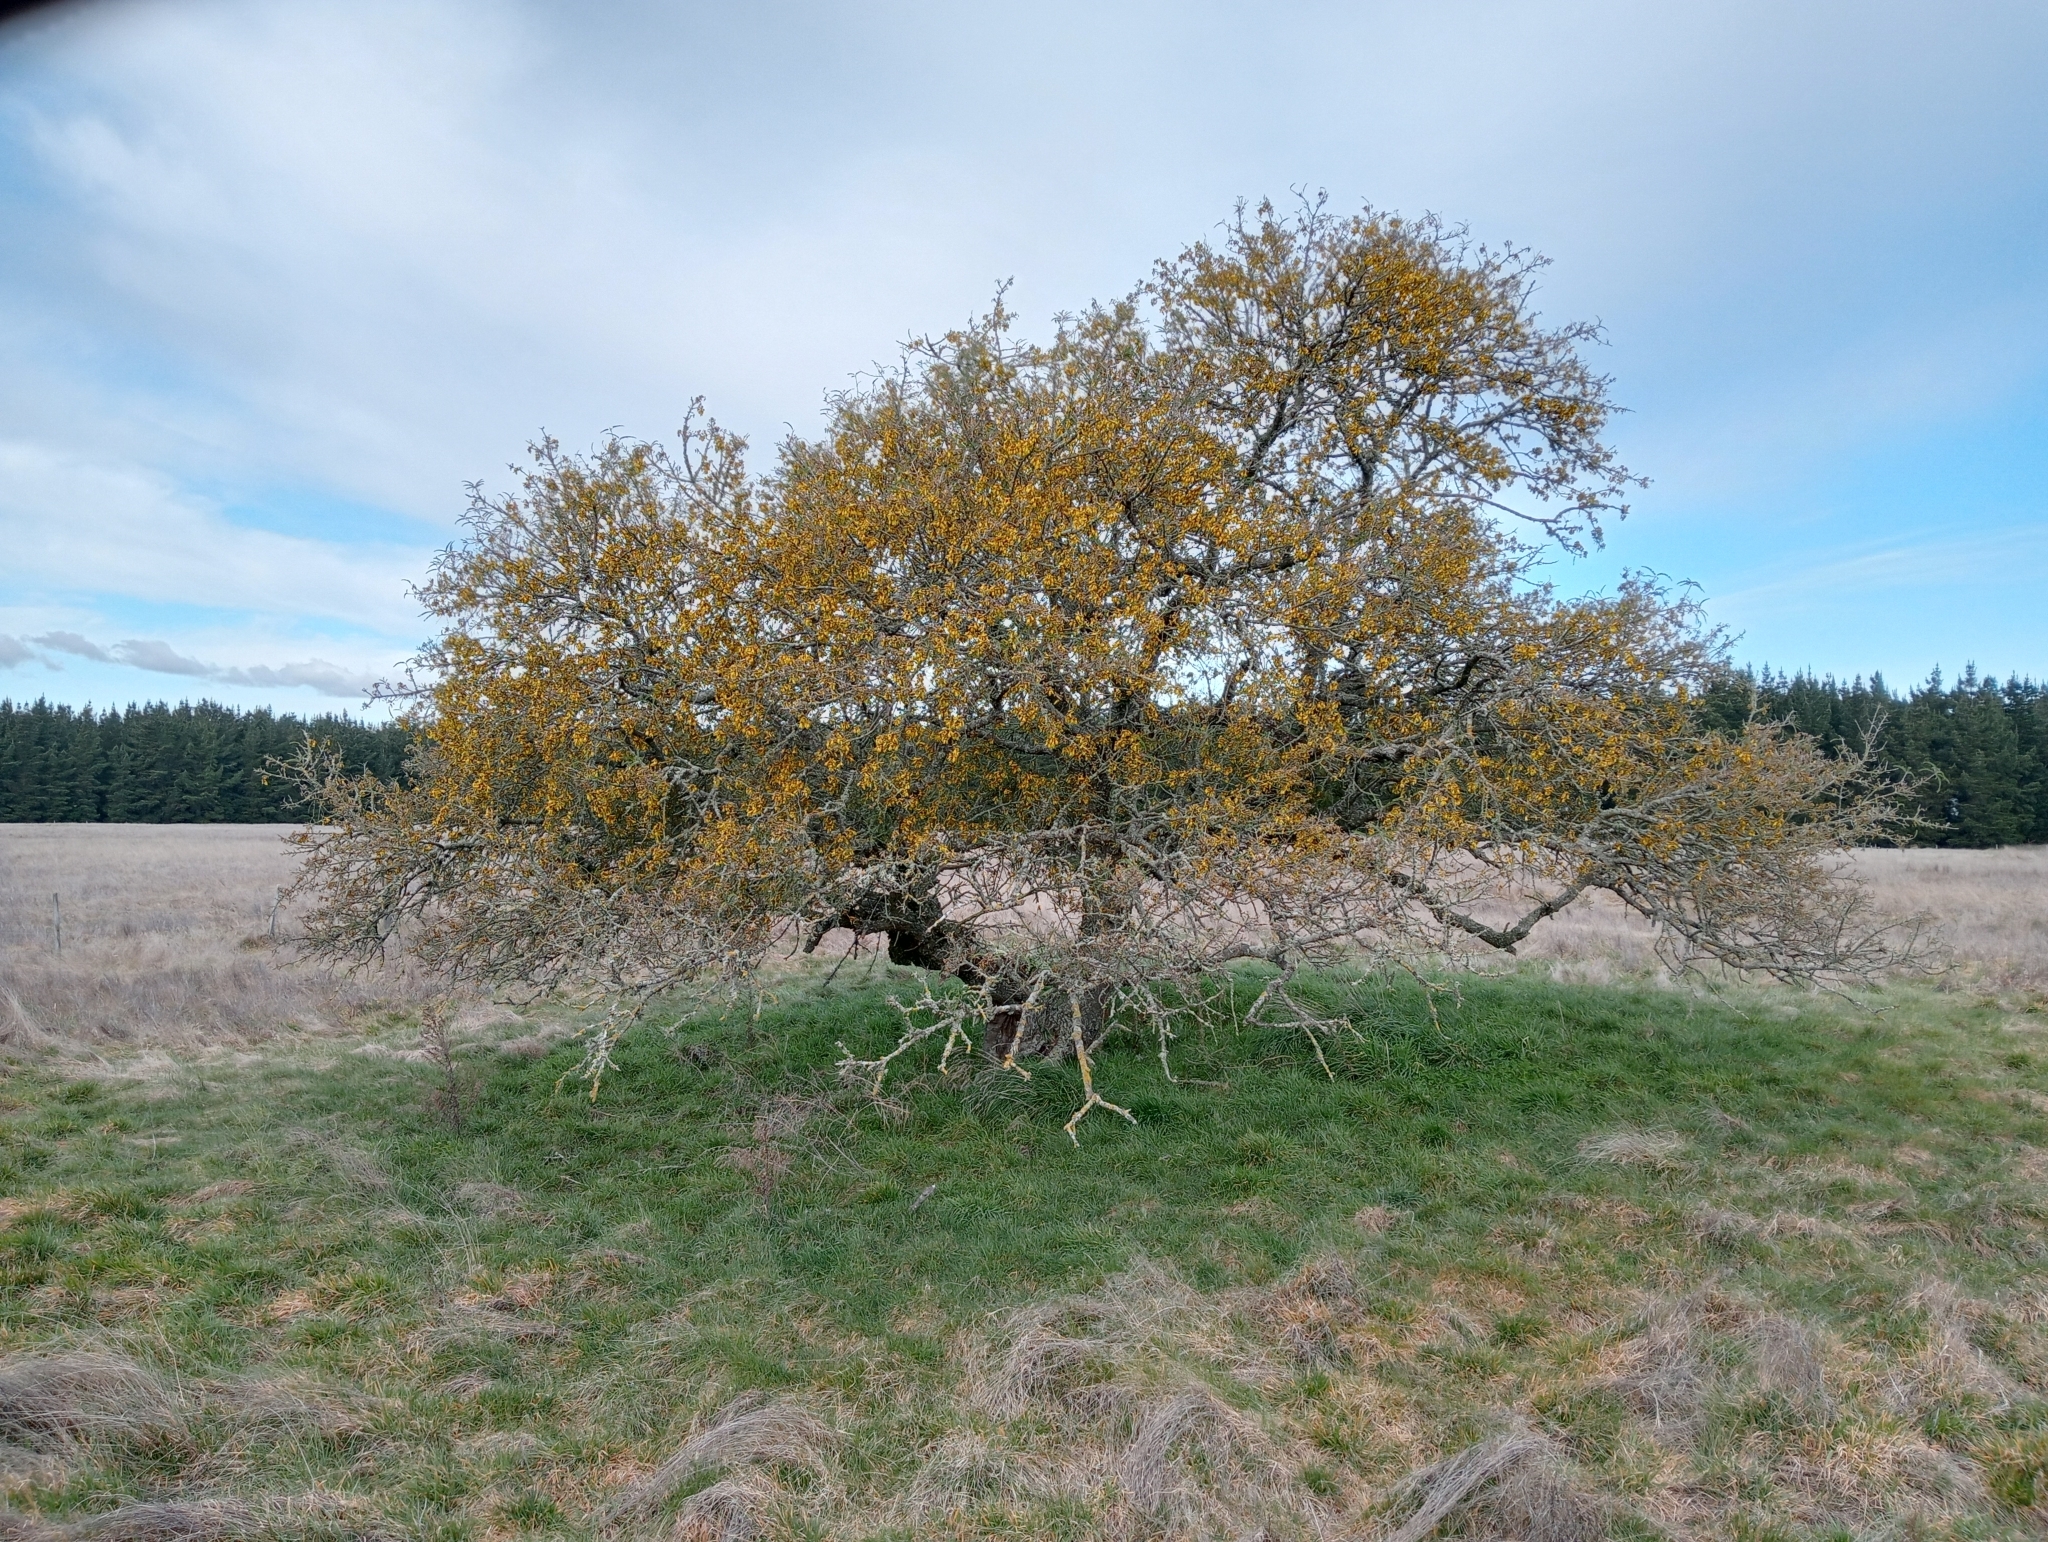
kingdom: Plantae
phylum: Tracheophyta
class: Magnoliopsida
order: Fabales
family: Fabaceae
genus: Sophora
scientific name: Sophora microphylla
